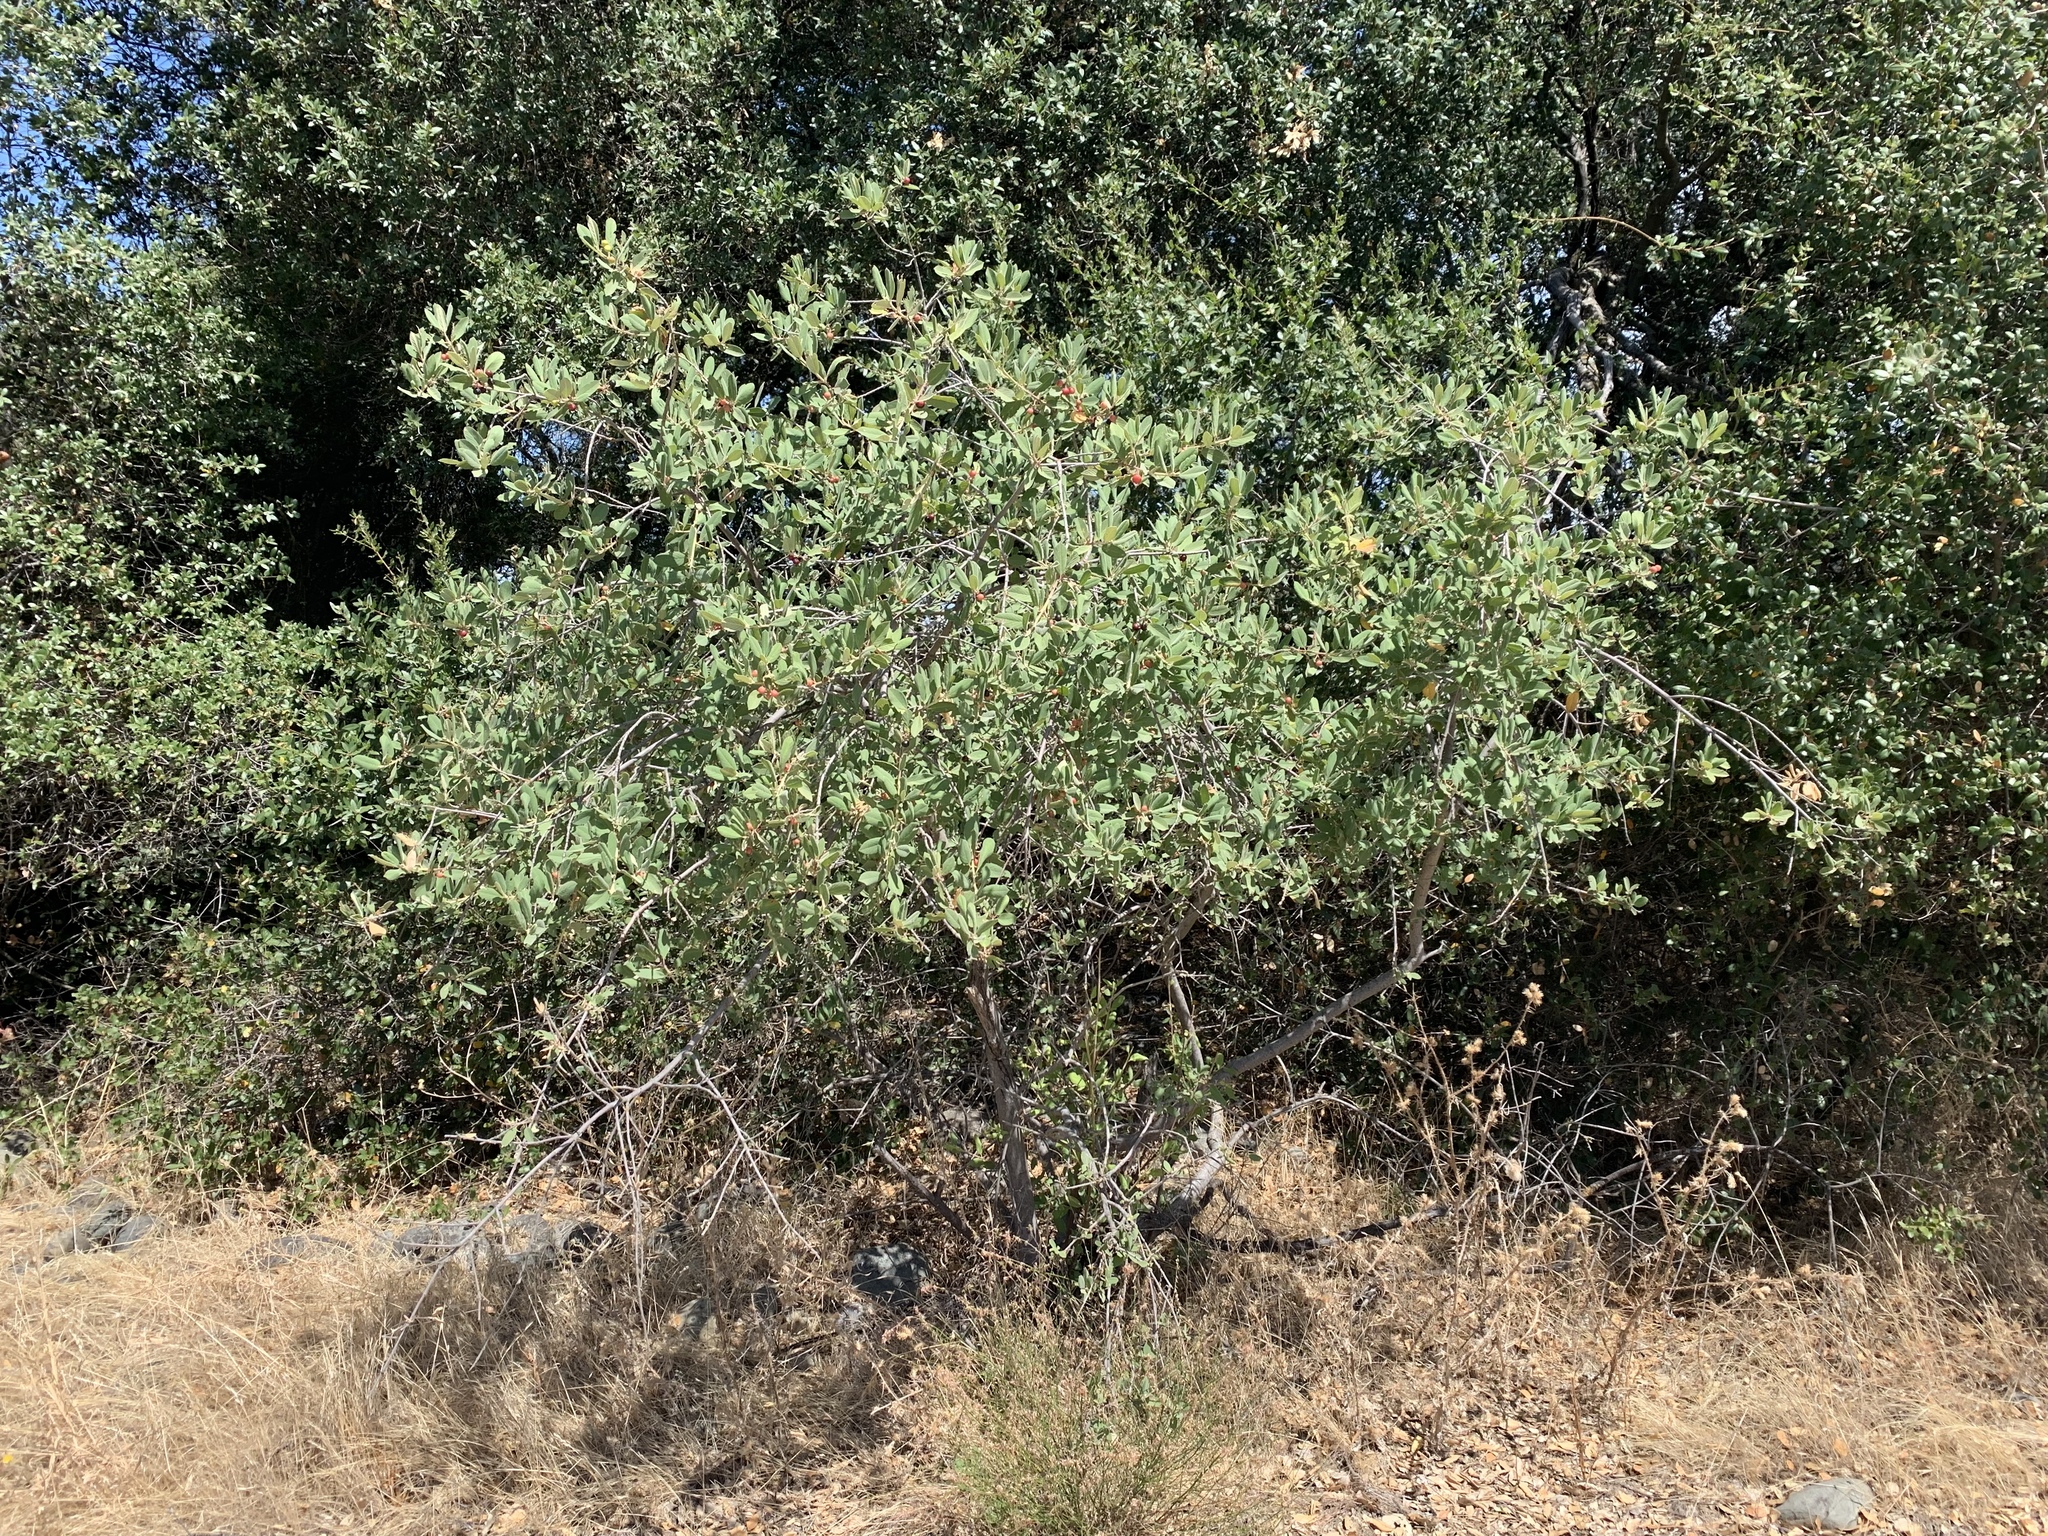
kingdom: Plantae
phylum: Tracheophyta
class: Magnoliopsida
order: Rosales
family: Rhamnaceae
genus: Frangula
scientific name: Frangula californica
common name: California buckthorn
